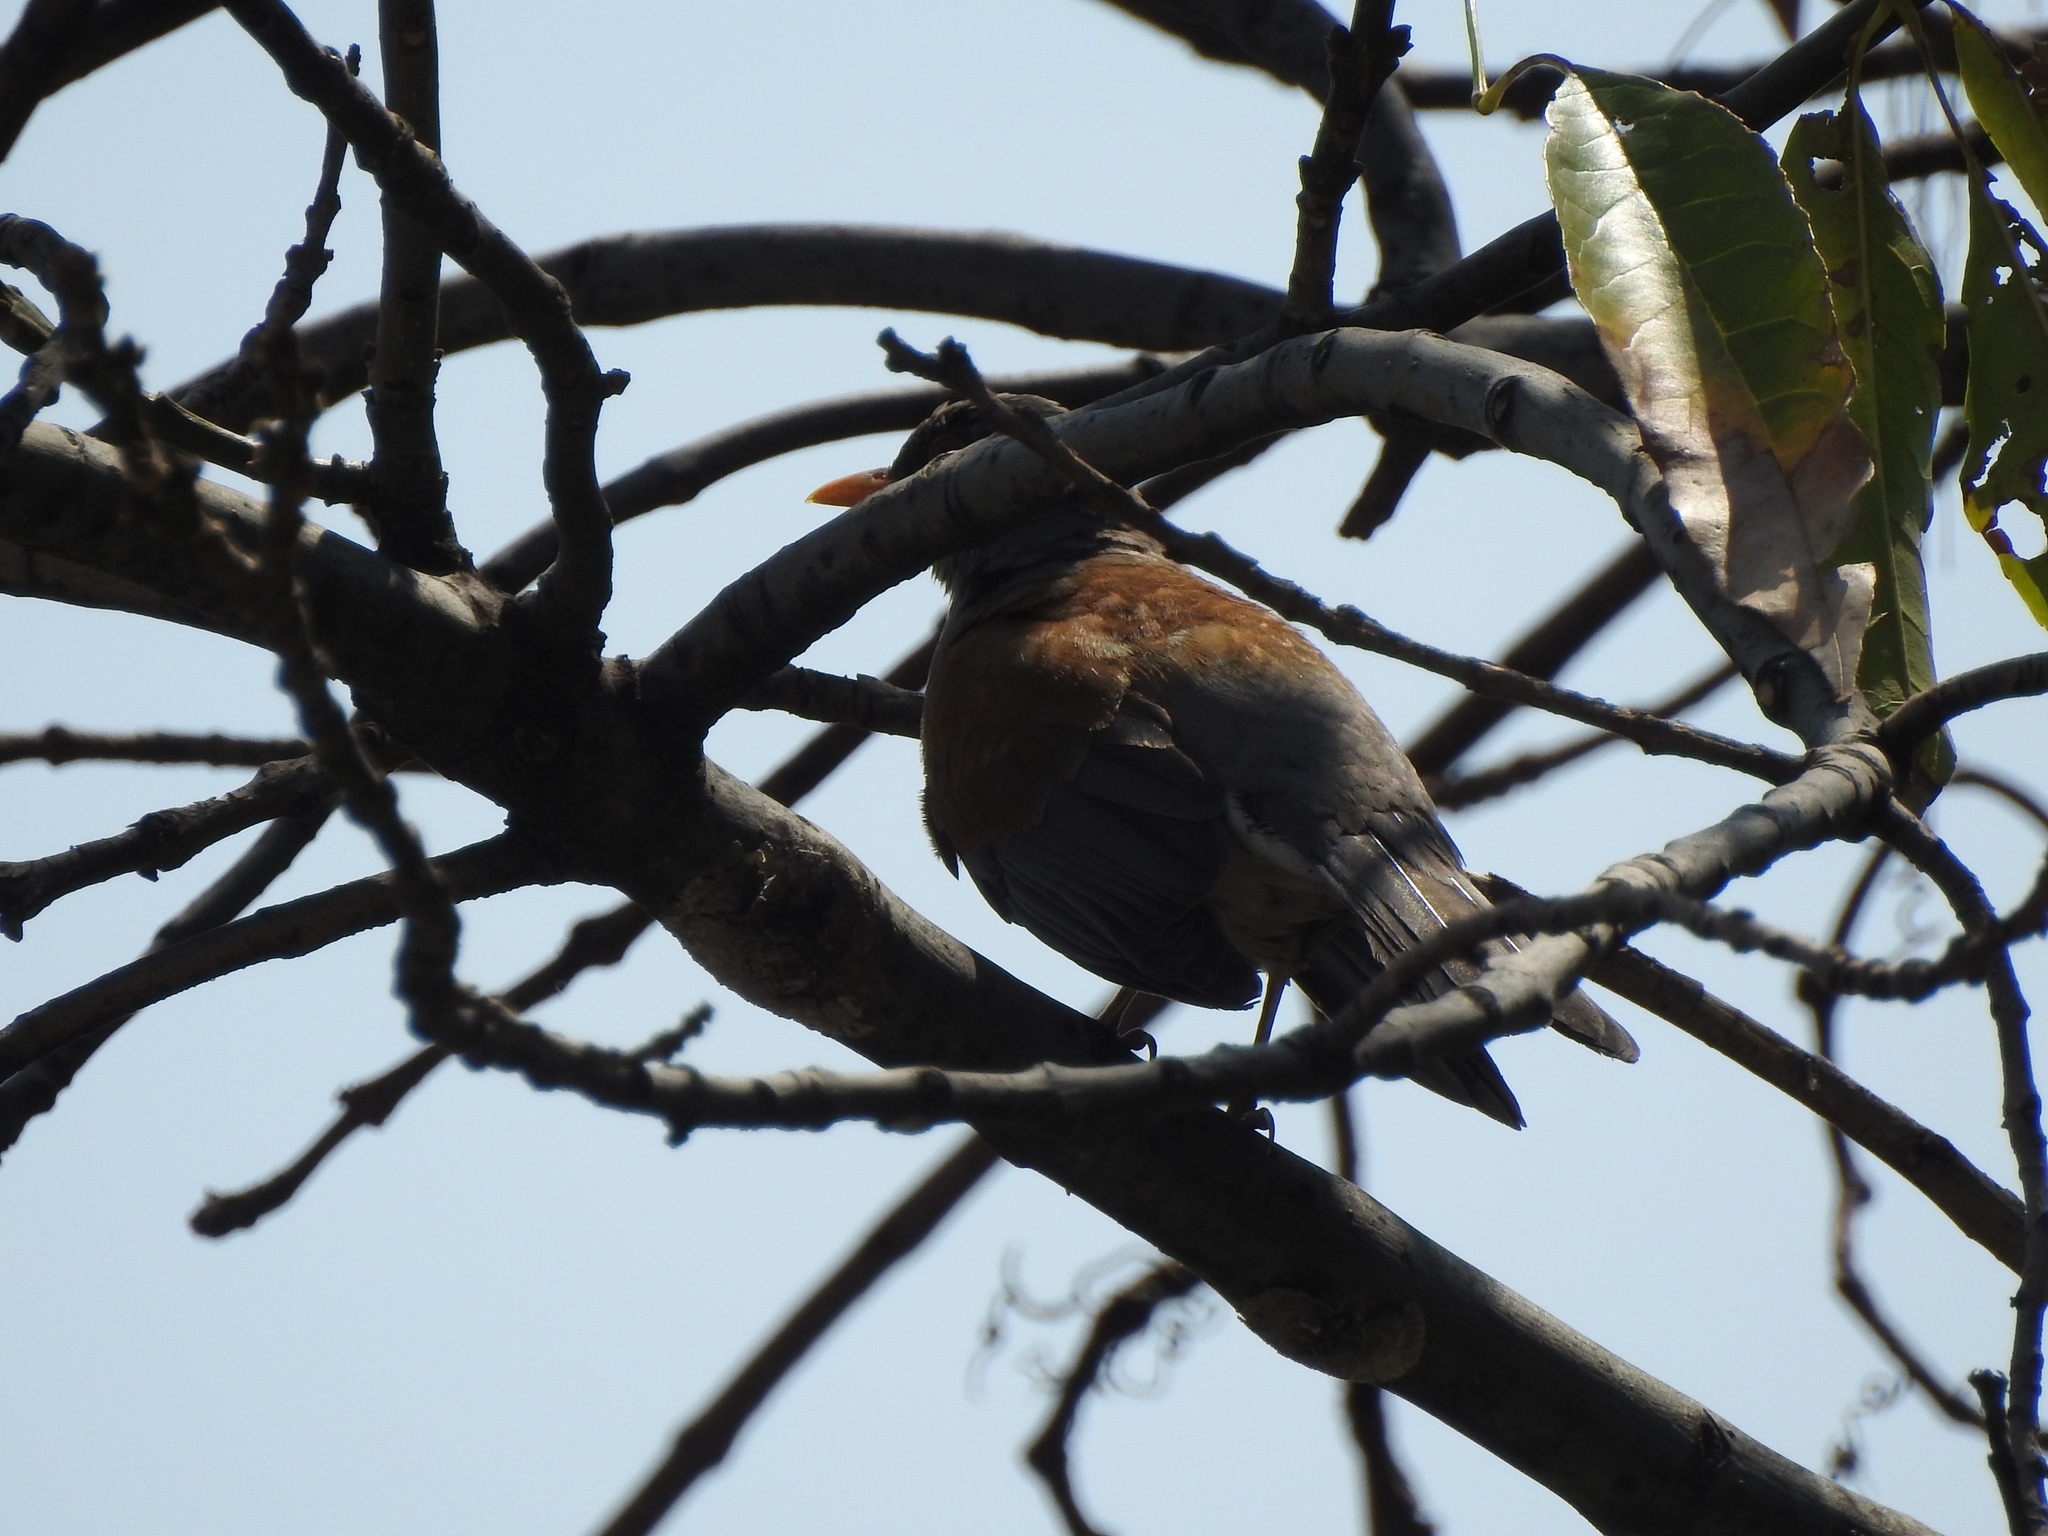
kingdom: Animalia
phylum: Chordata
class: Aves
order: Passeriformes
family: Turdidae
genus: Turdus
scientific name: Turdus rufopalliatus
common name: Rufous-backed robin
